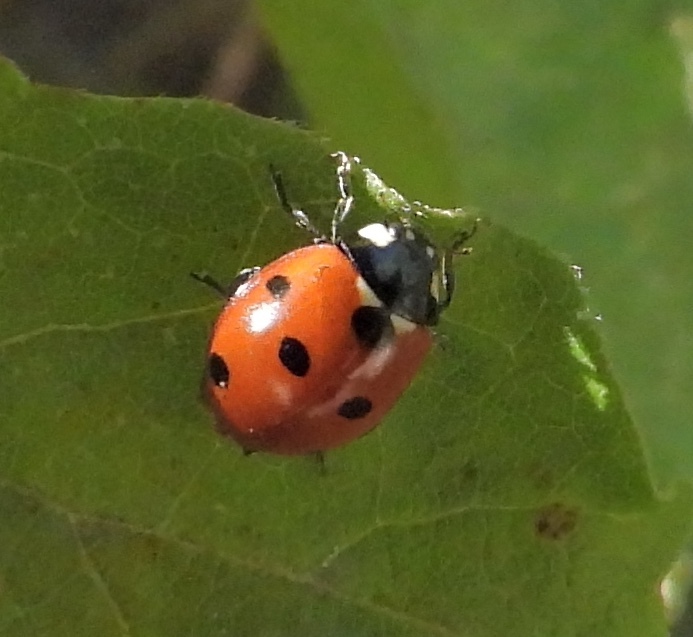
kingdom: Animalia
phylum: Arthropoda
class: Insecta
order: Coleoptera
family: Coccinellidae
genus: Coccinella
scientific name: Coccinella septempunctata
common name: Sevenspotted lady beetle
